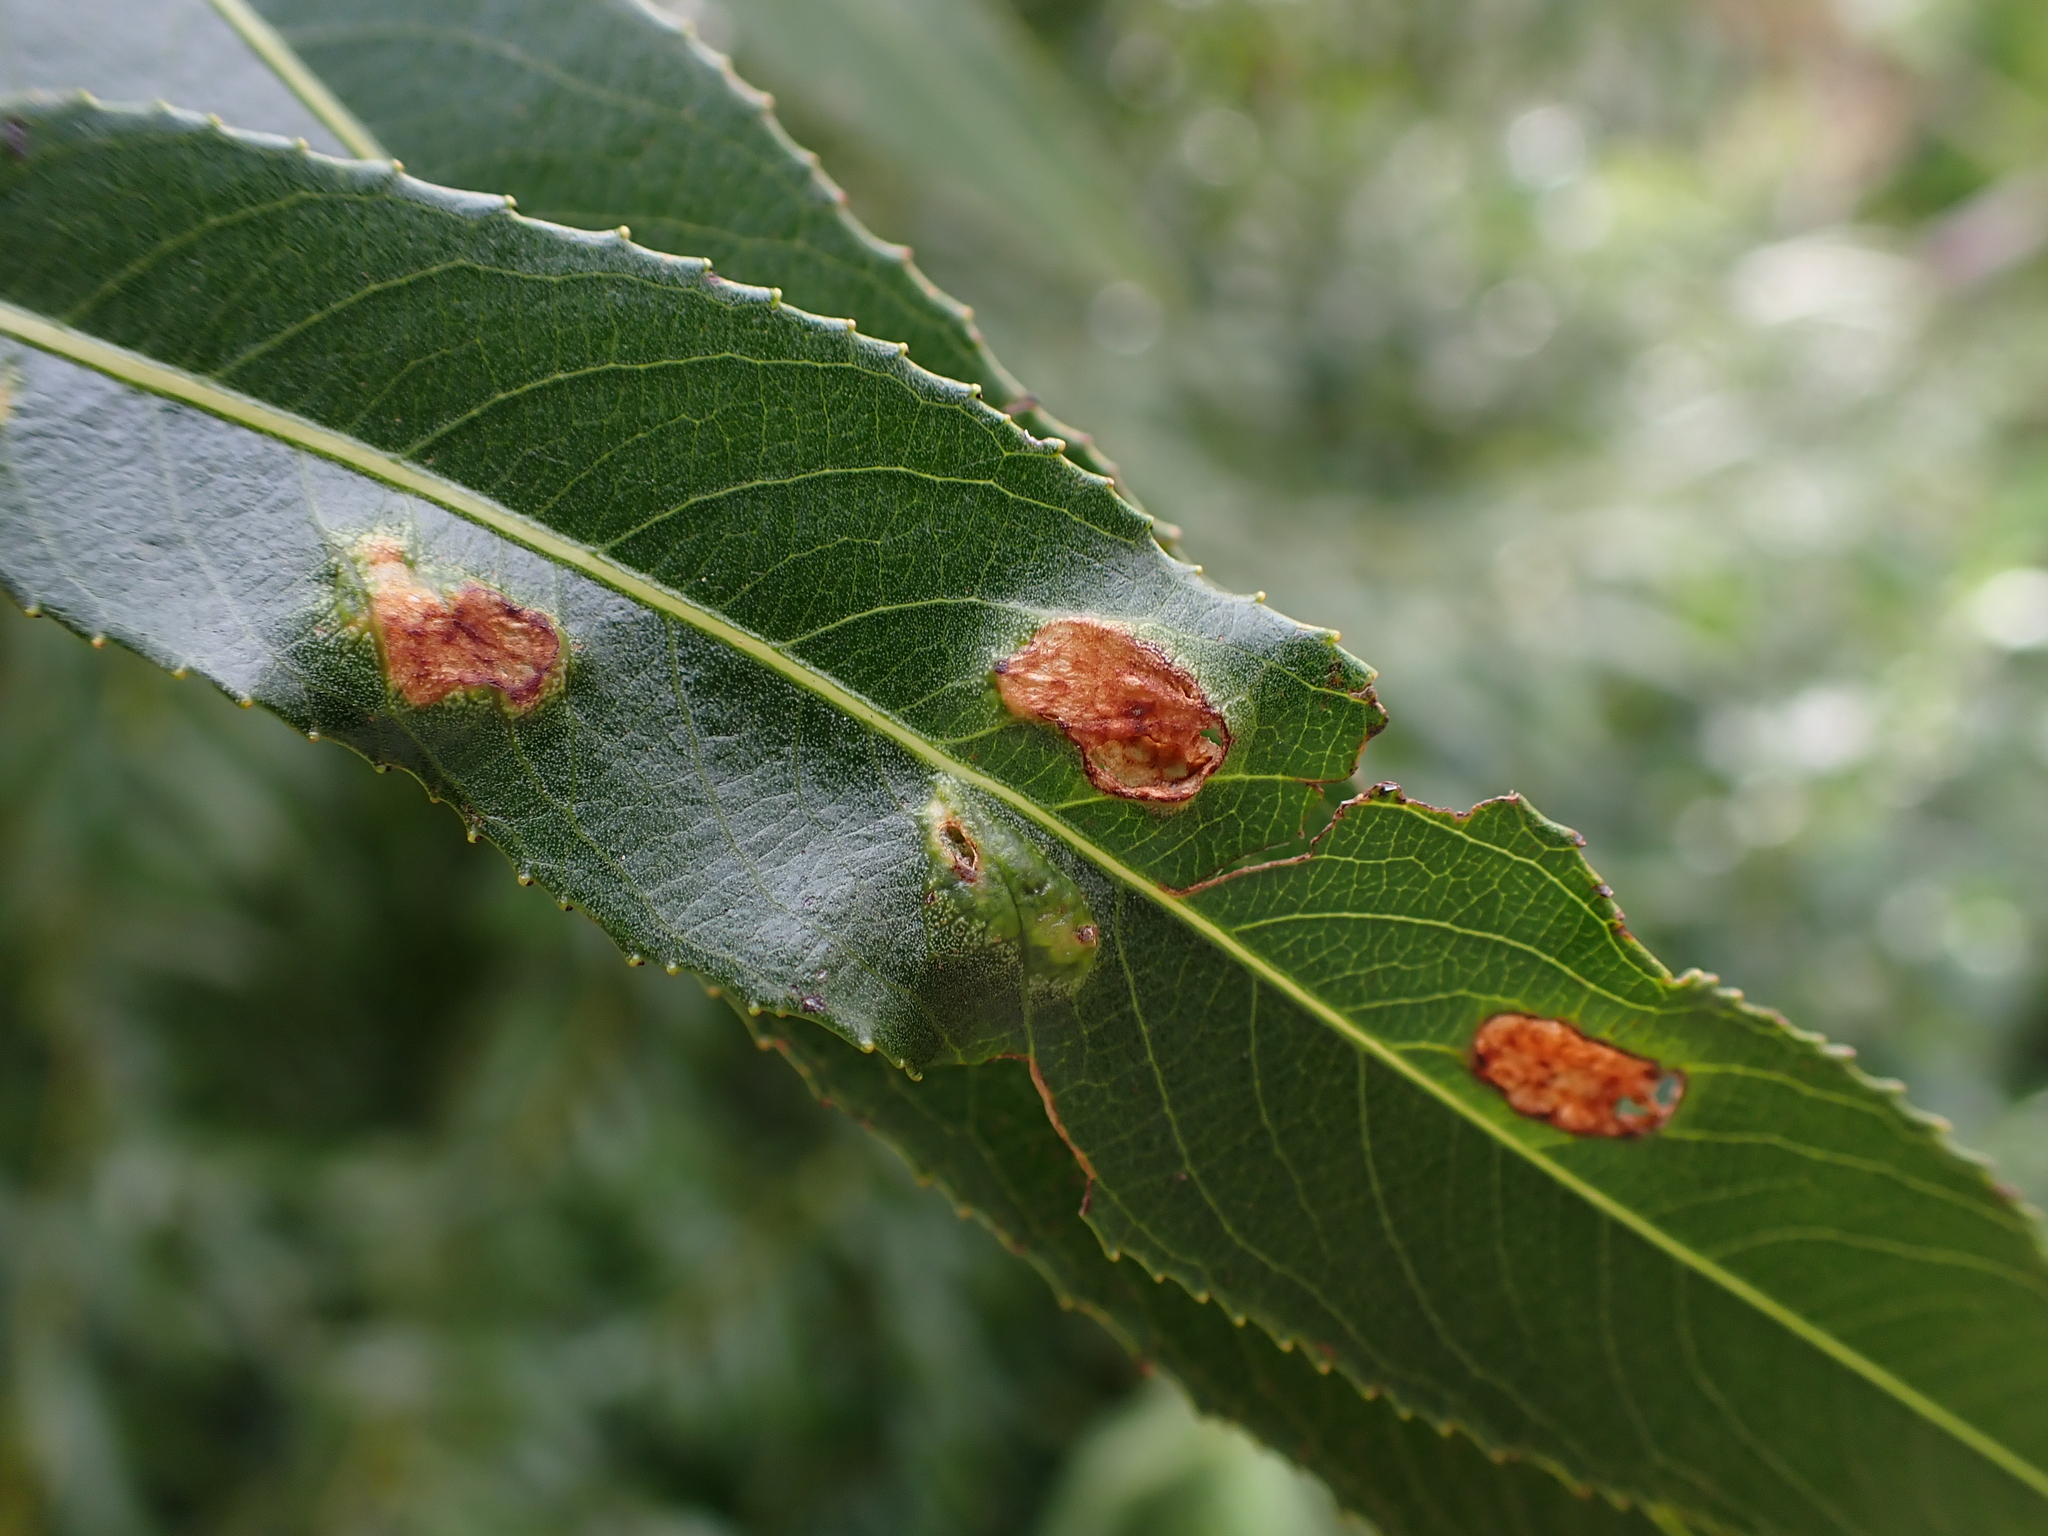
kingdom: Animalia
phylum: Arthropoda
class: Insecta
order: Hymenoptera
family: Tenthredinidae
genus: Pontania
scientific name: Pontania proxima
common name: Common sawfly
